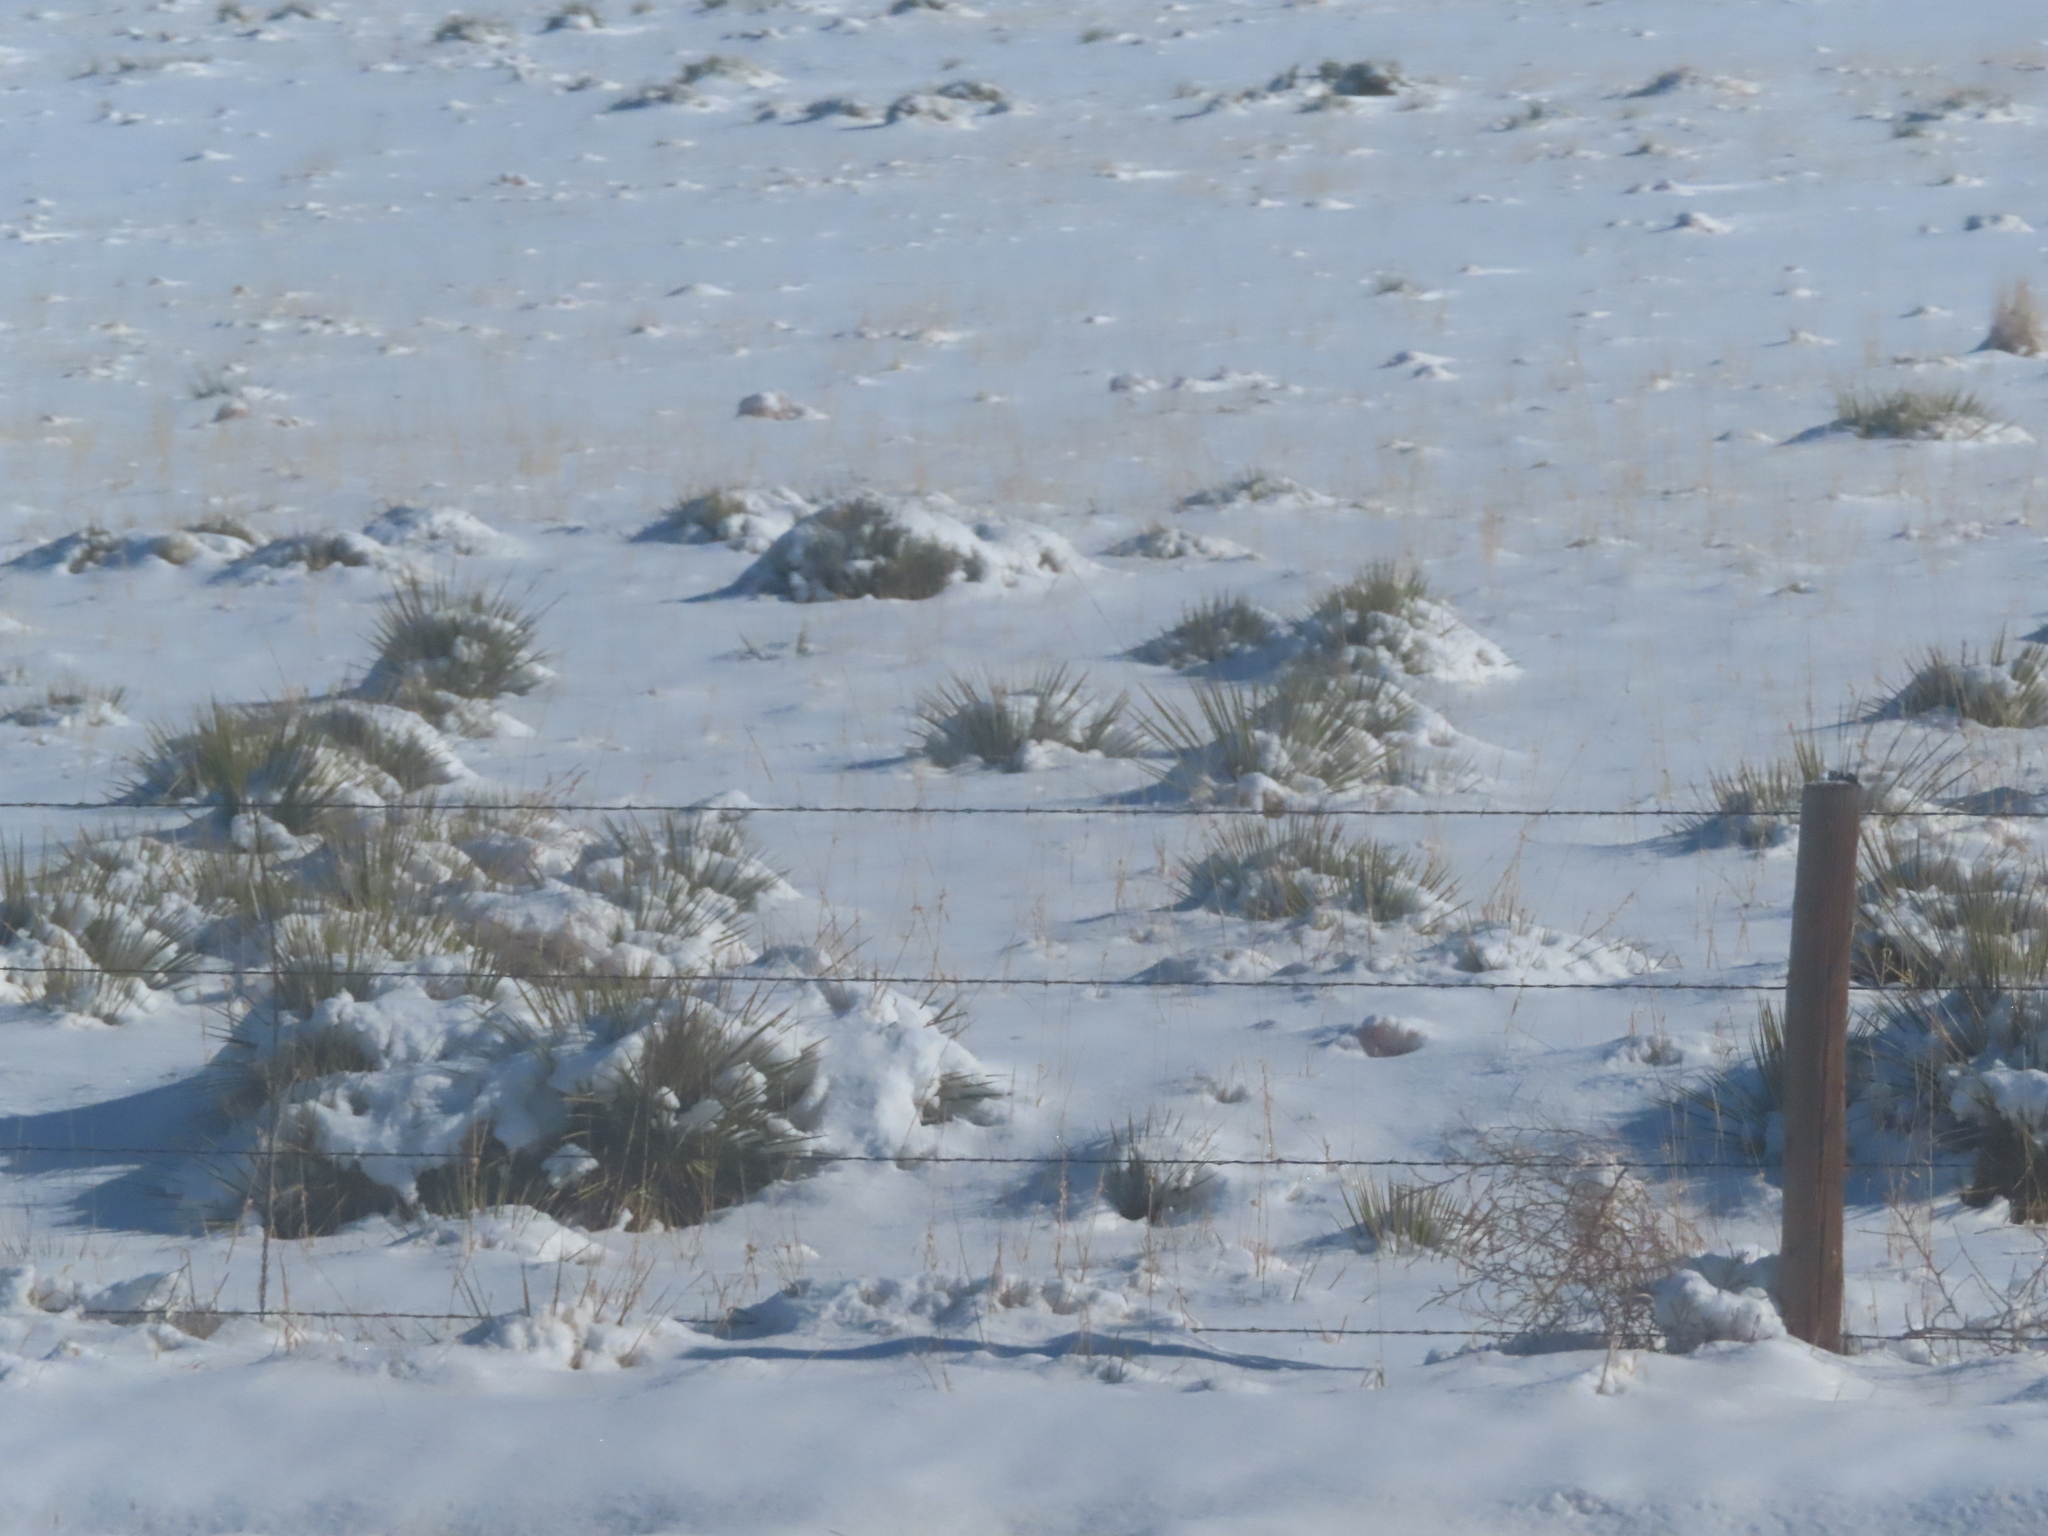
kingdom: Plantae
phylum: Tracheophyta
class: Liliopsida
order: Asparagales
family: Asparagaceae
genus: Yucca
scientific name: Yucca glauca
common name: Great plains yucca
